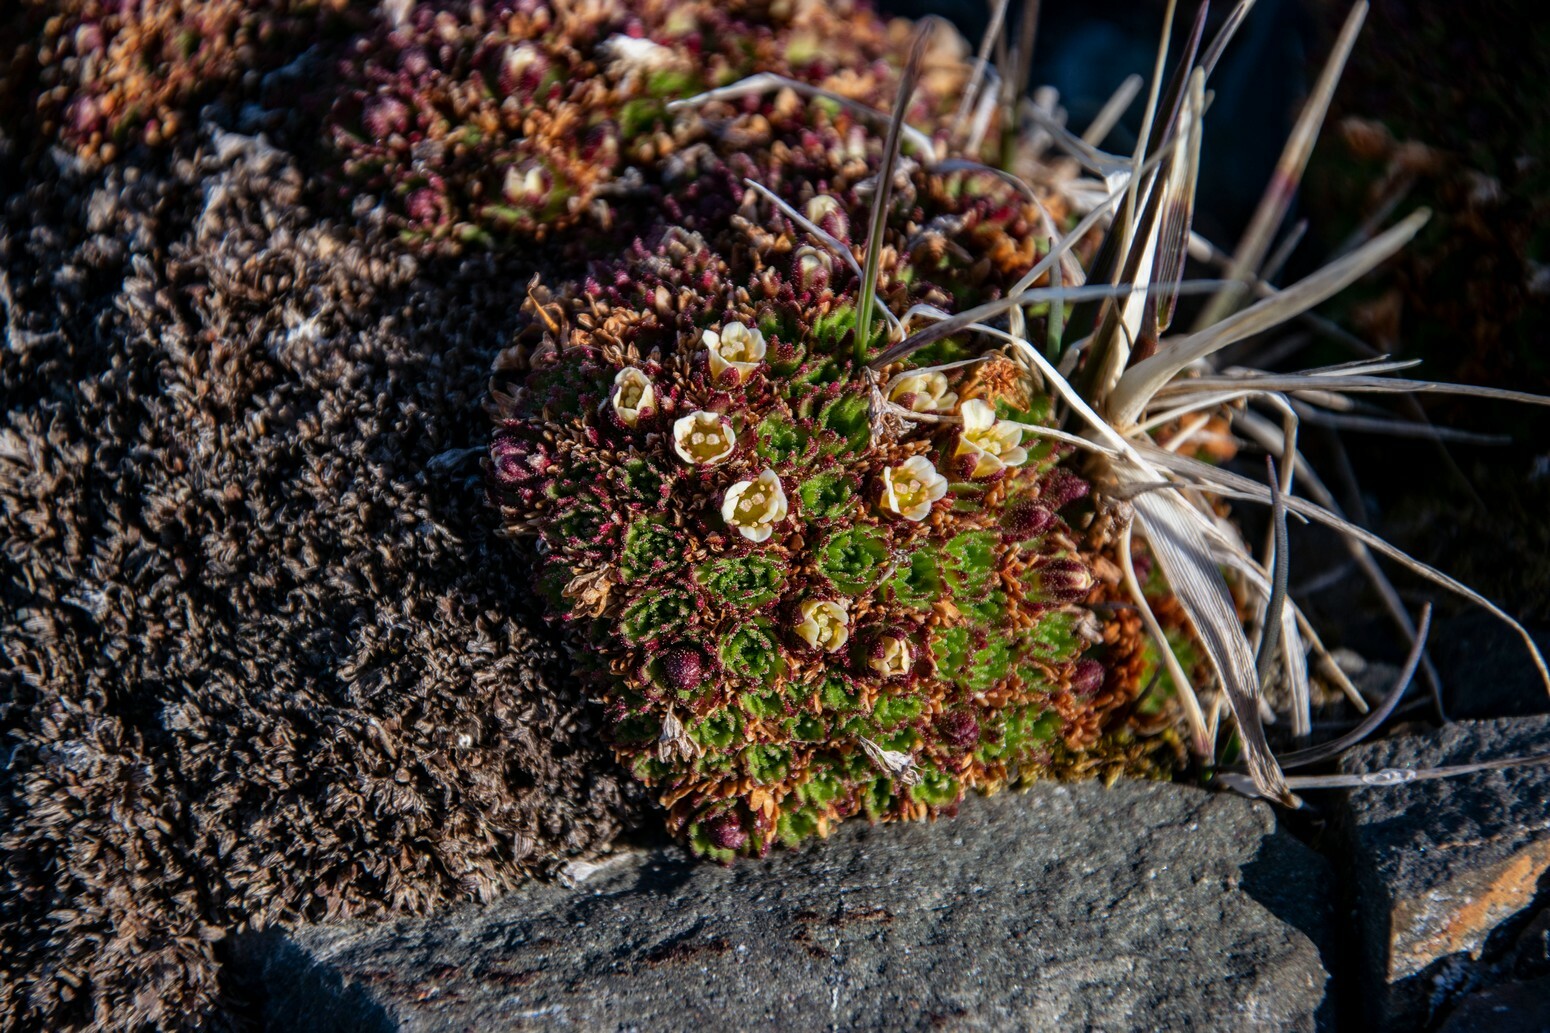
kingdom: Plantae
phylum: Tracheophyta
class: Magnoliopsida
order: Saxifragales
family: Saxifragaceae
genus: Saxifraga
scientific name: Saxifraga cespitosa
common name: Tufted saxifrage
